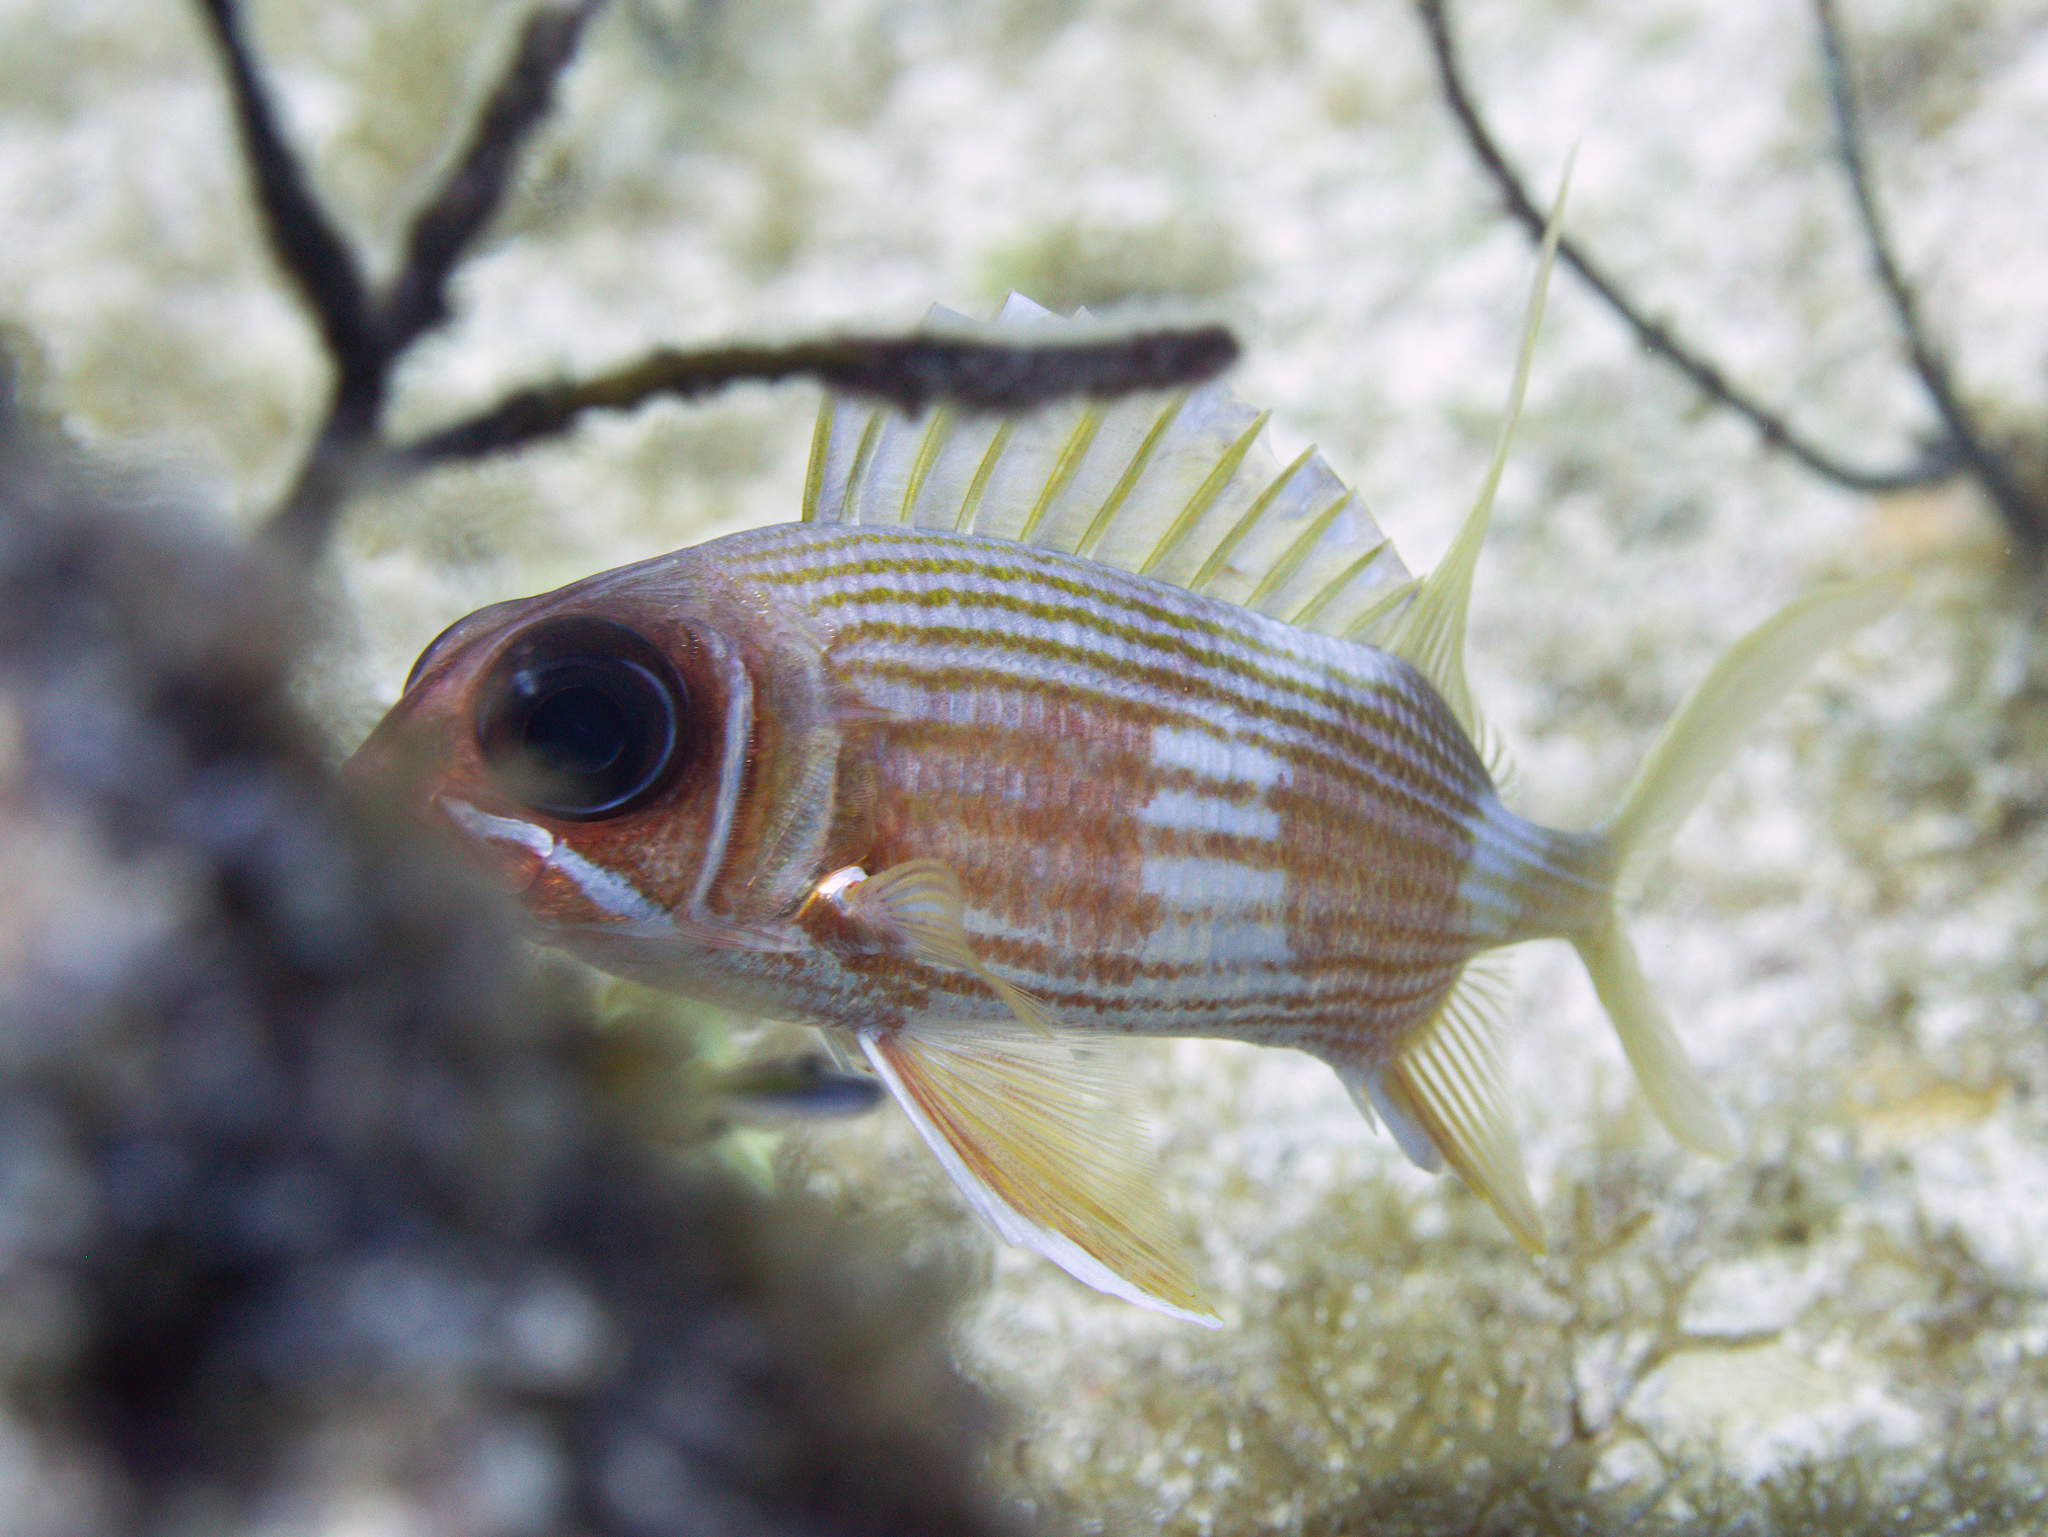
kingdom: Animalia
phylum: Chordata
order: Beryciformes
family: Holocentridae
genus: Holocentrus
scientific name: Holocentrus rufus
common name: Longspine squirrelfish
